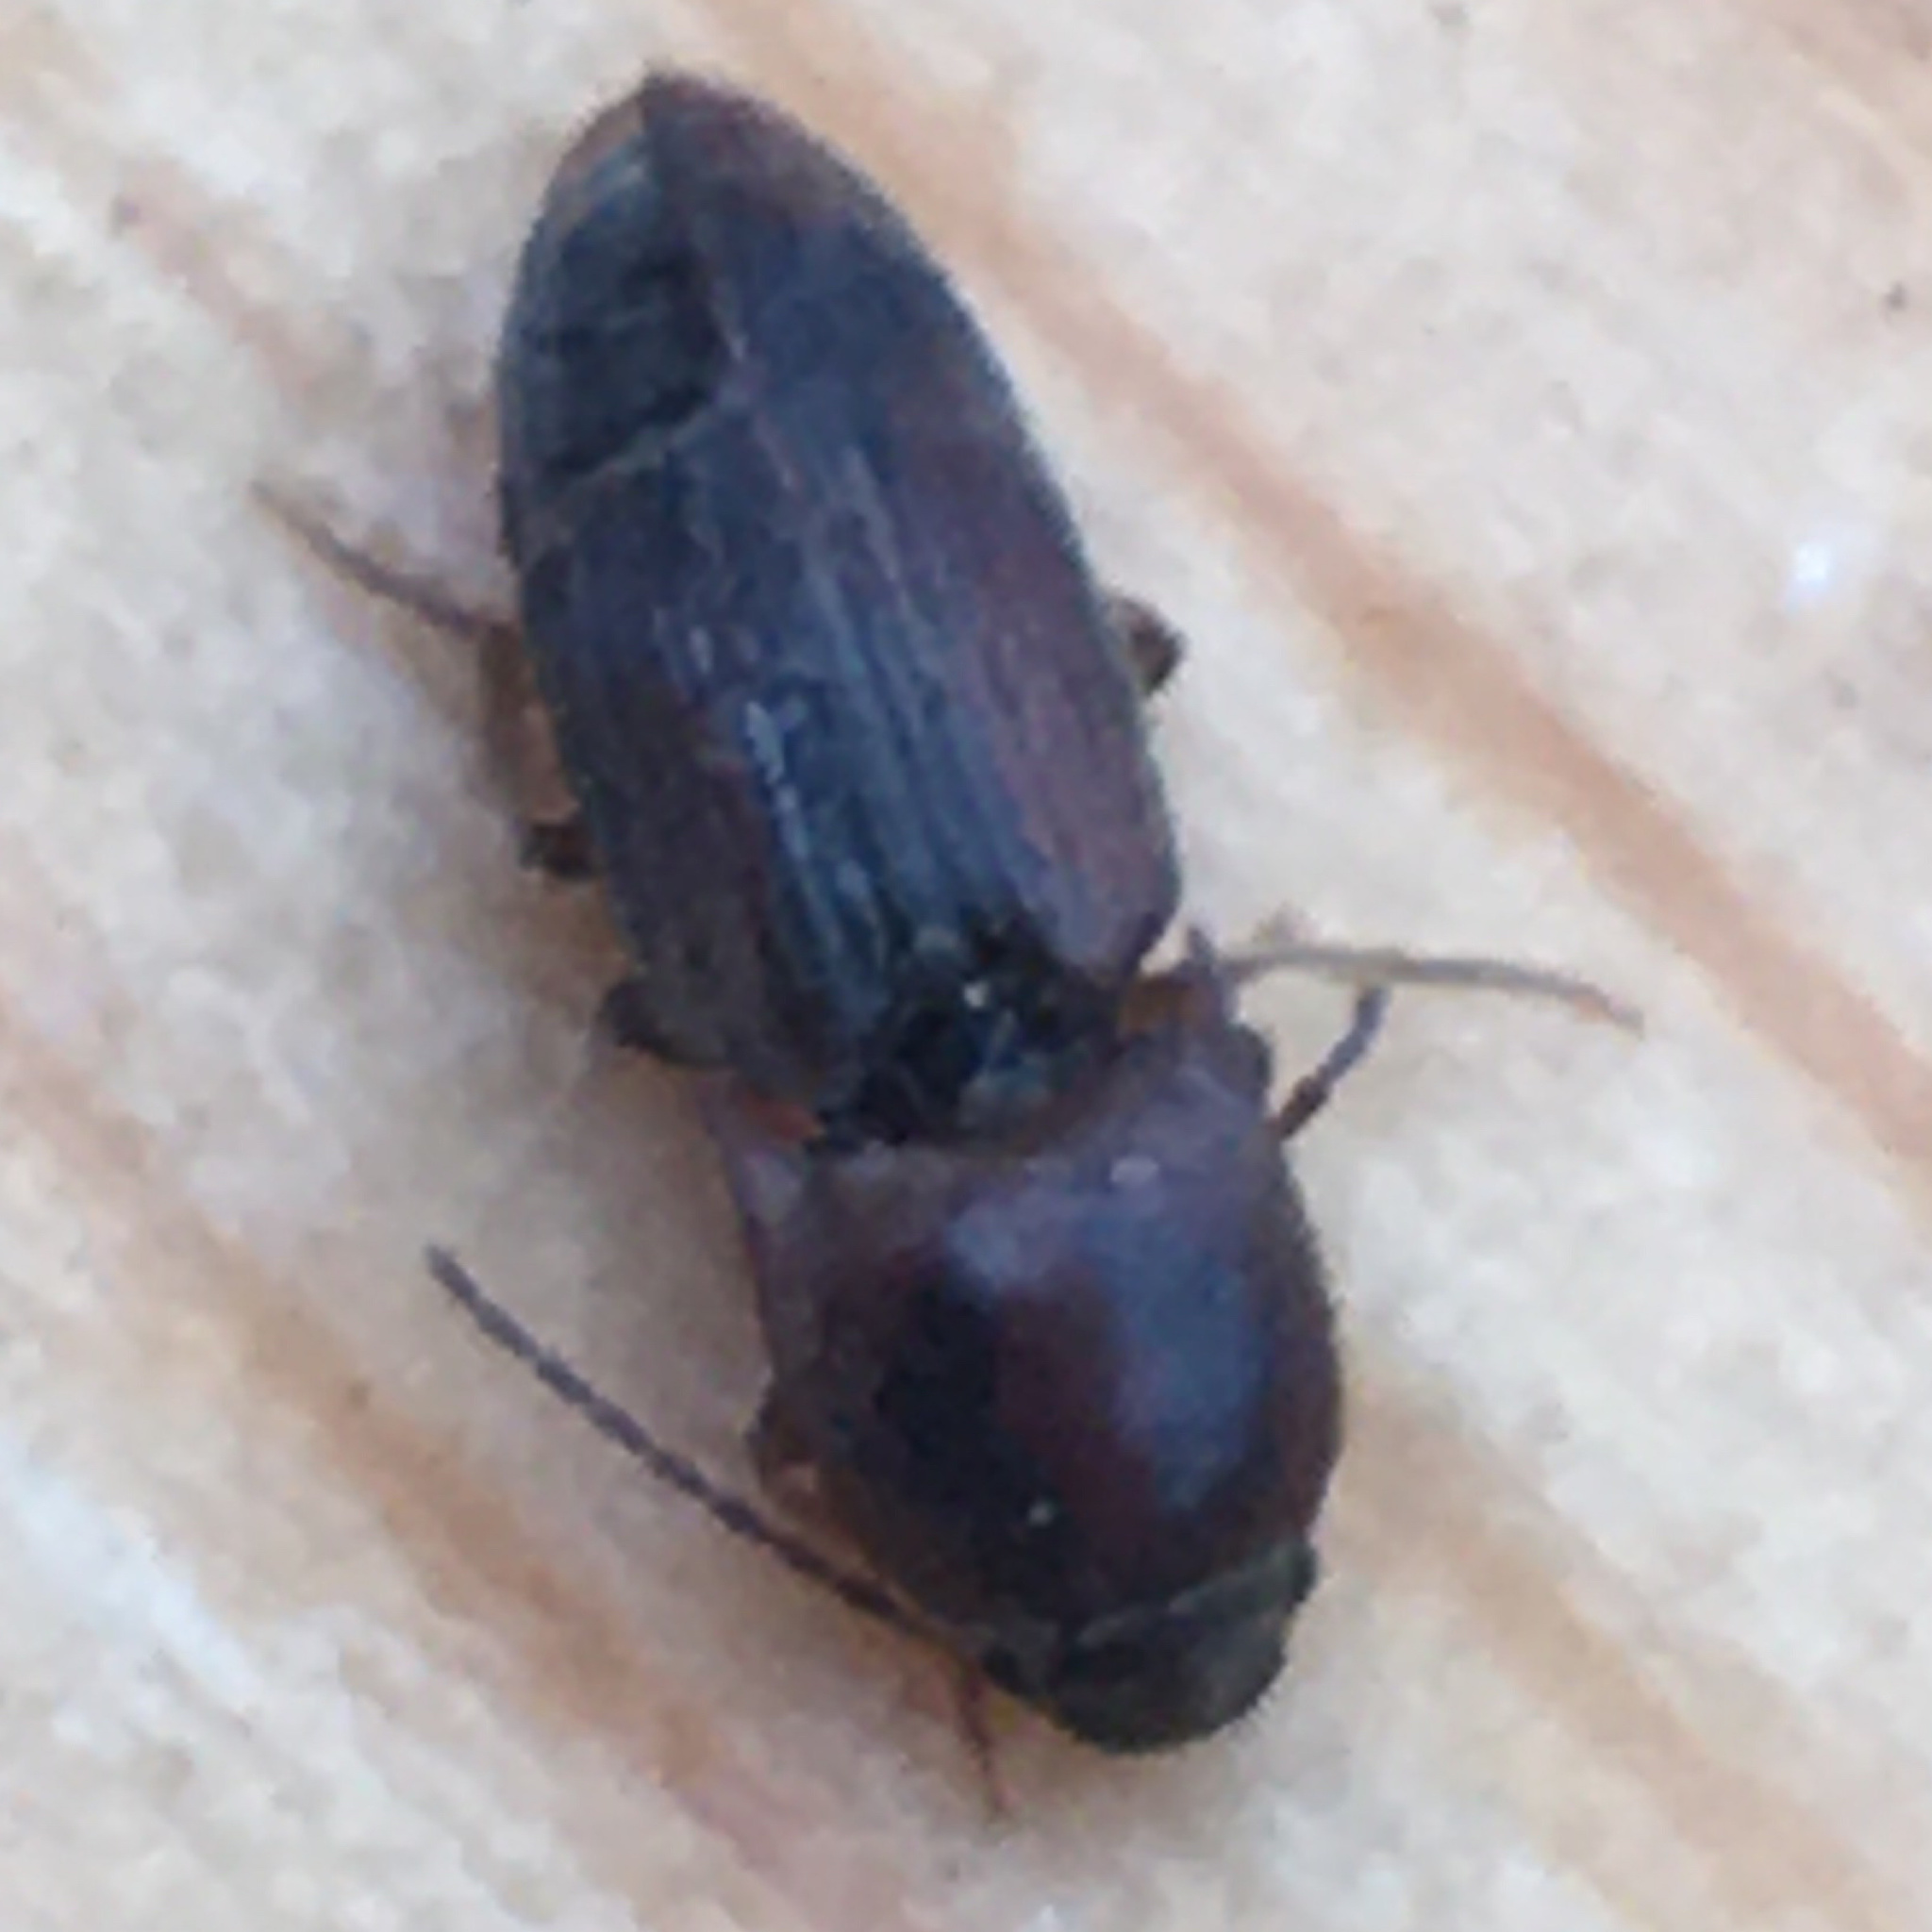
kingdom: Animalia
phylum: Arthropoda
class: Insecta
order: Coleoptera
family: Elateridae
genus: Monocrepidius
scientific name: Monocrepidius
